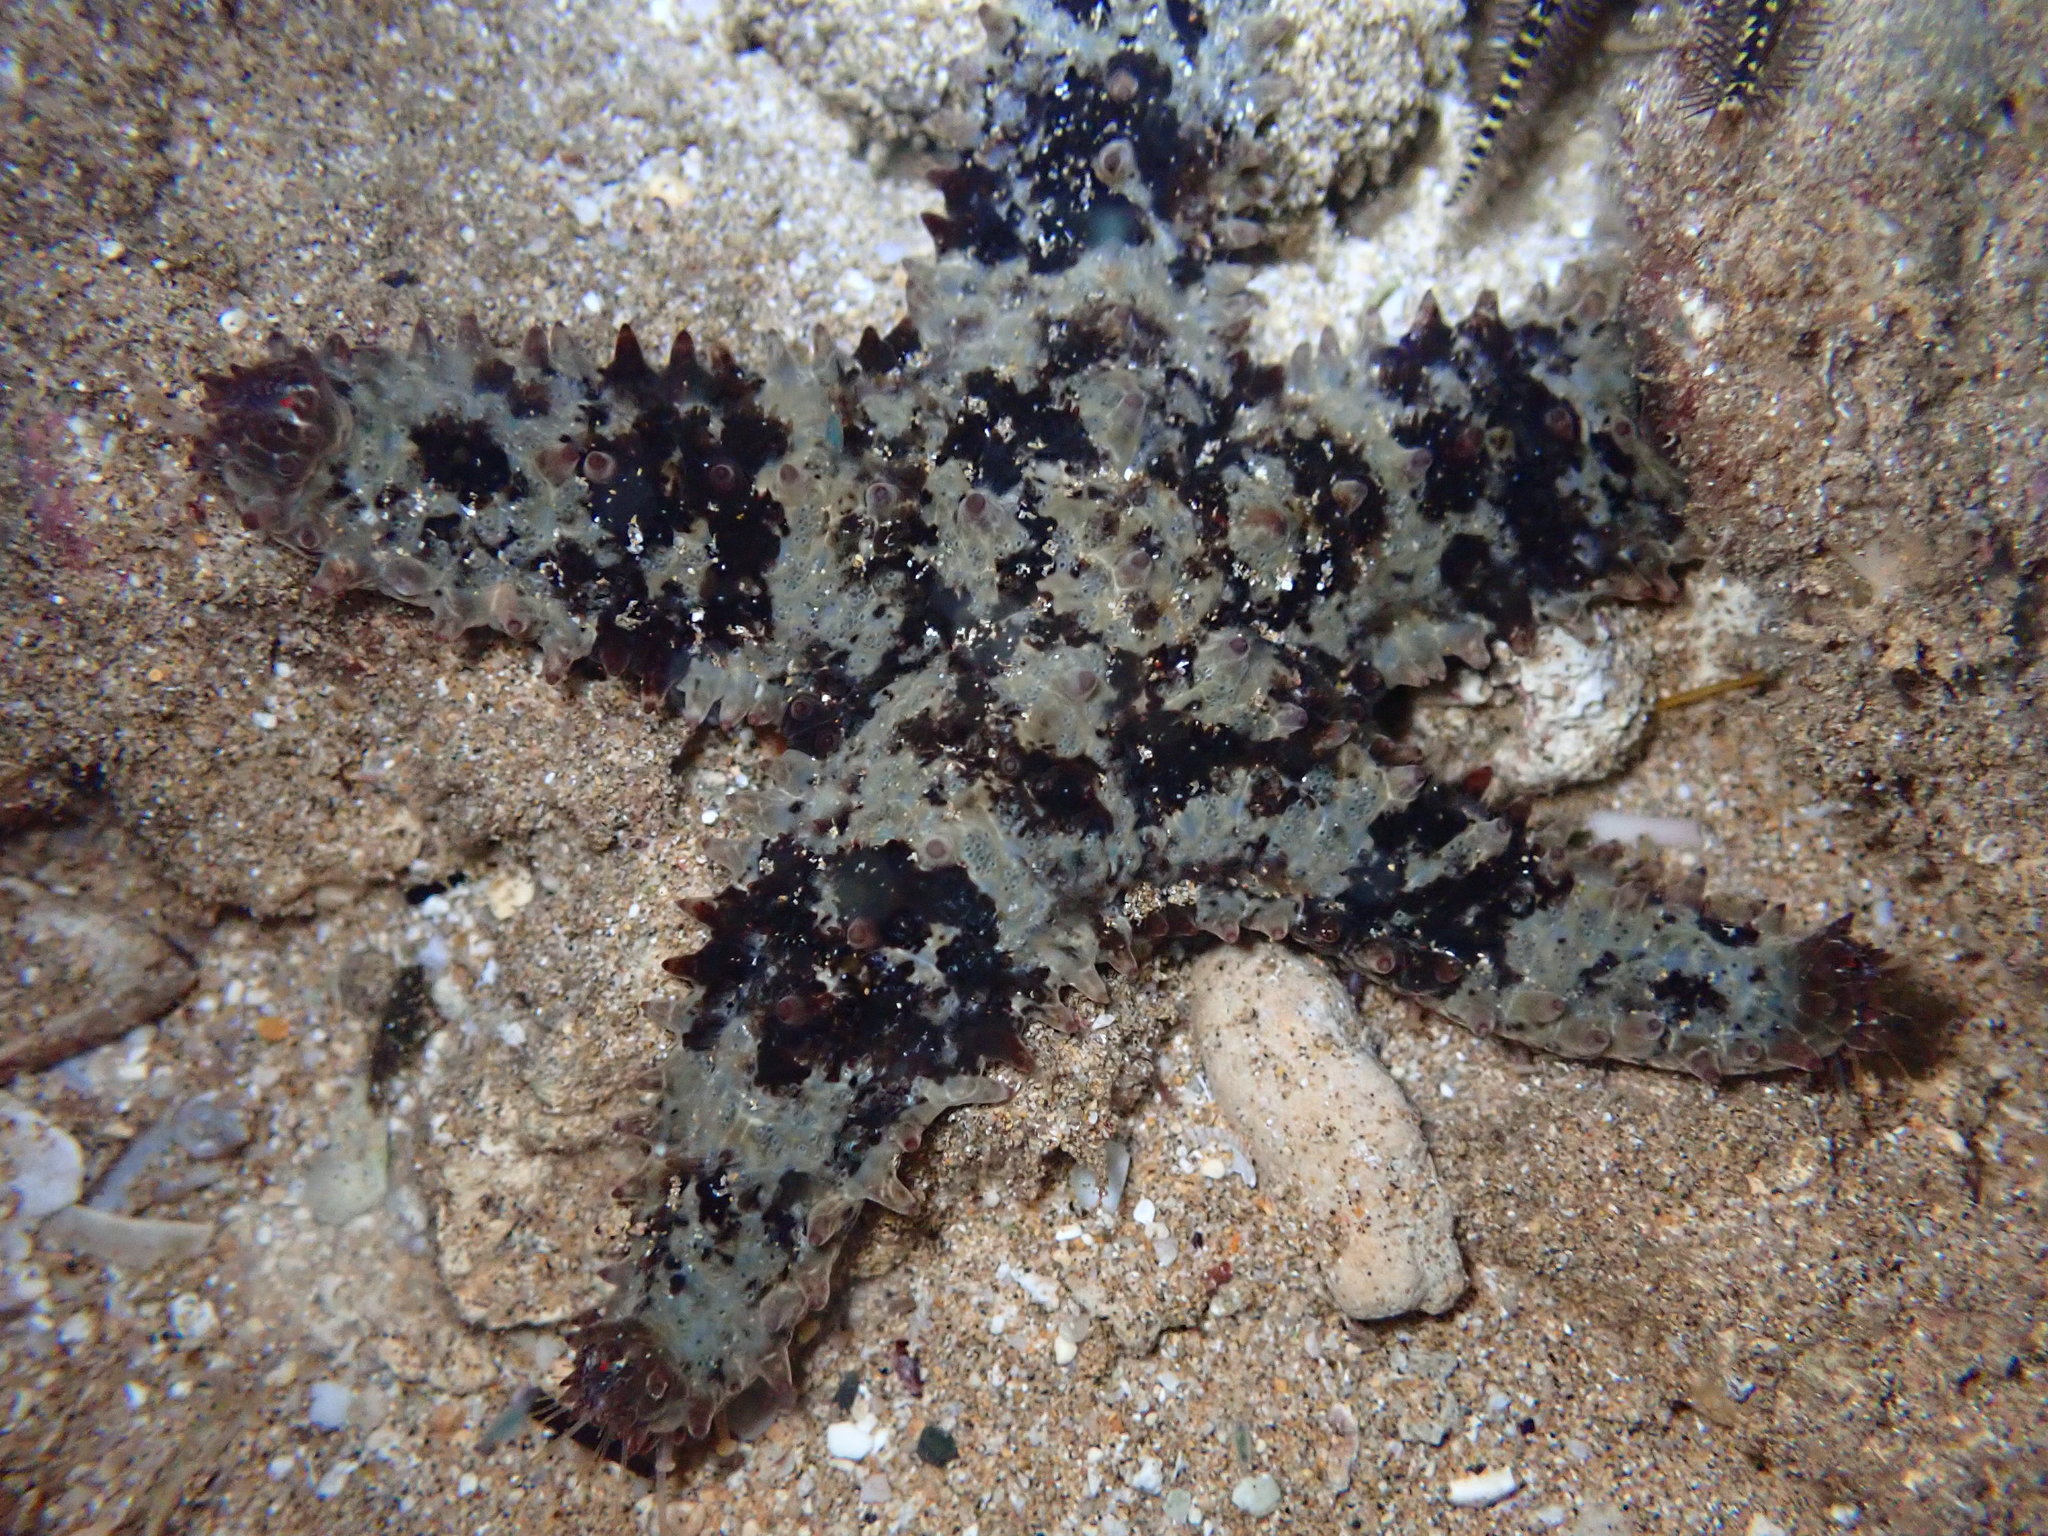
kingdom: Animalia
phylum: Echinodermata
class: Asteroidea
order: Valvatida
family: Asteropseidae
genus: Asteropsis
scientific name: Asteropsis carinifera
